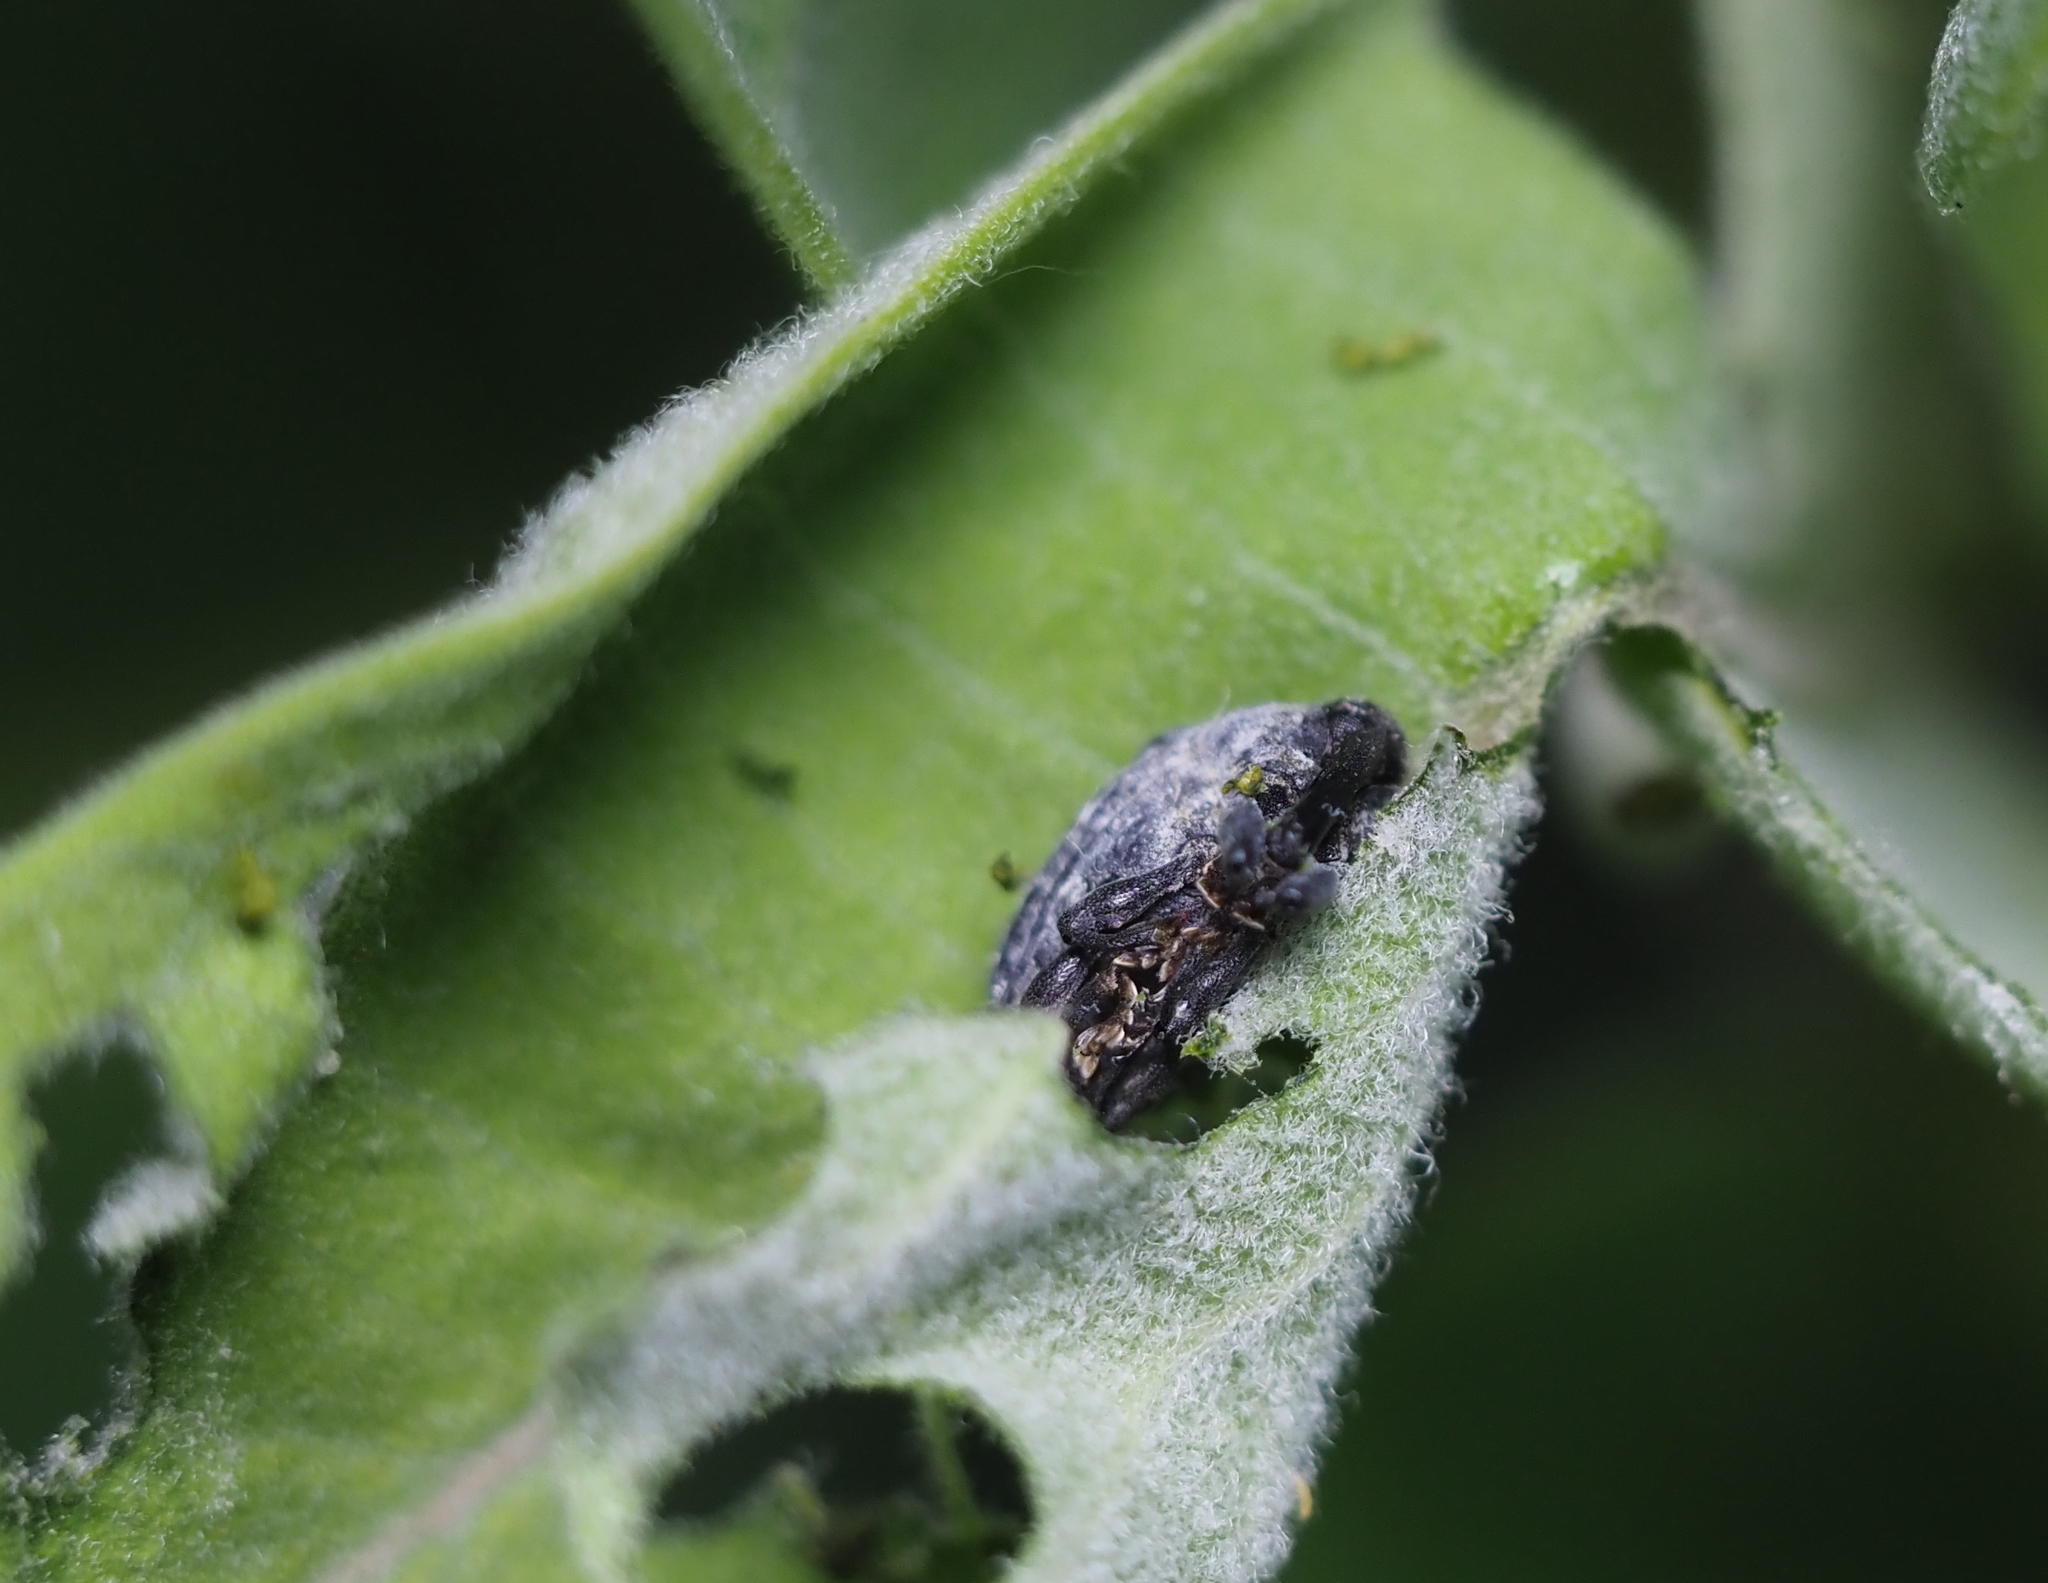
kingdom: Animalia
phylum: Arthropoda
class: Insecta
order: Coleoptera
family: Curculionidae
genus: Rhyssomatus
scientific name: Rhyssomatus lineaticollis
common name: Milkweed stem weevil
